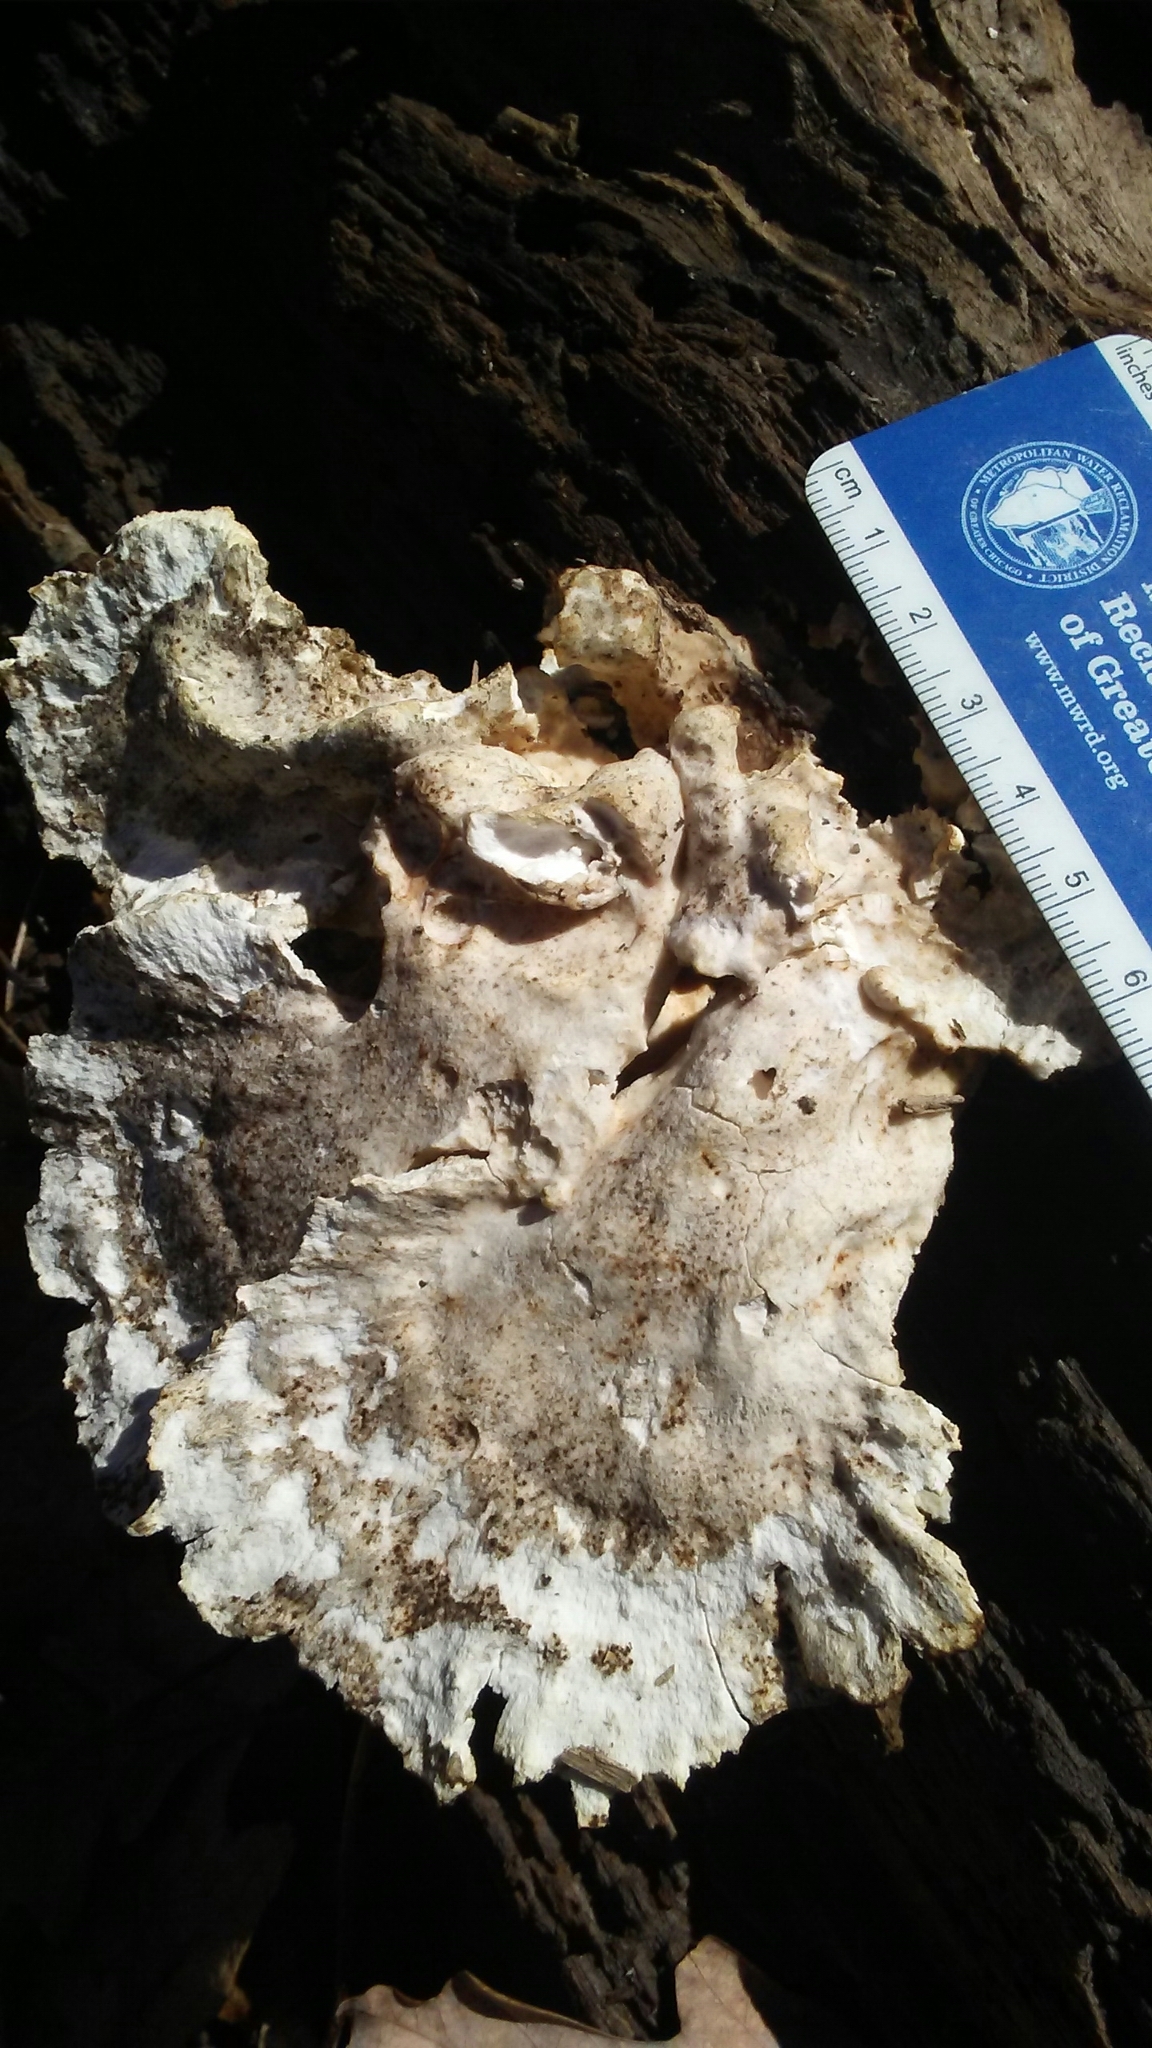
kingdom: Fungi
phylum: Basidiomycota
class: Agaricomycetes
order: Polyporales
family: Laetiporaceae
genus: Laetiporus
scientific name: Laetiporus sulphureus
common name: Chicken of the woods
